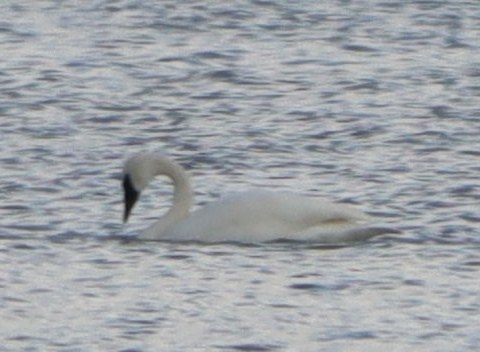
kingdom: Animalia
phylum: Chordata
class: Aves
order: Anseriformes
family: Anatidae
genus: Cygnus
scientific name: Cygnus buccinator
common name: Trumpeter swan
